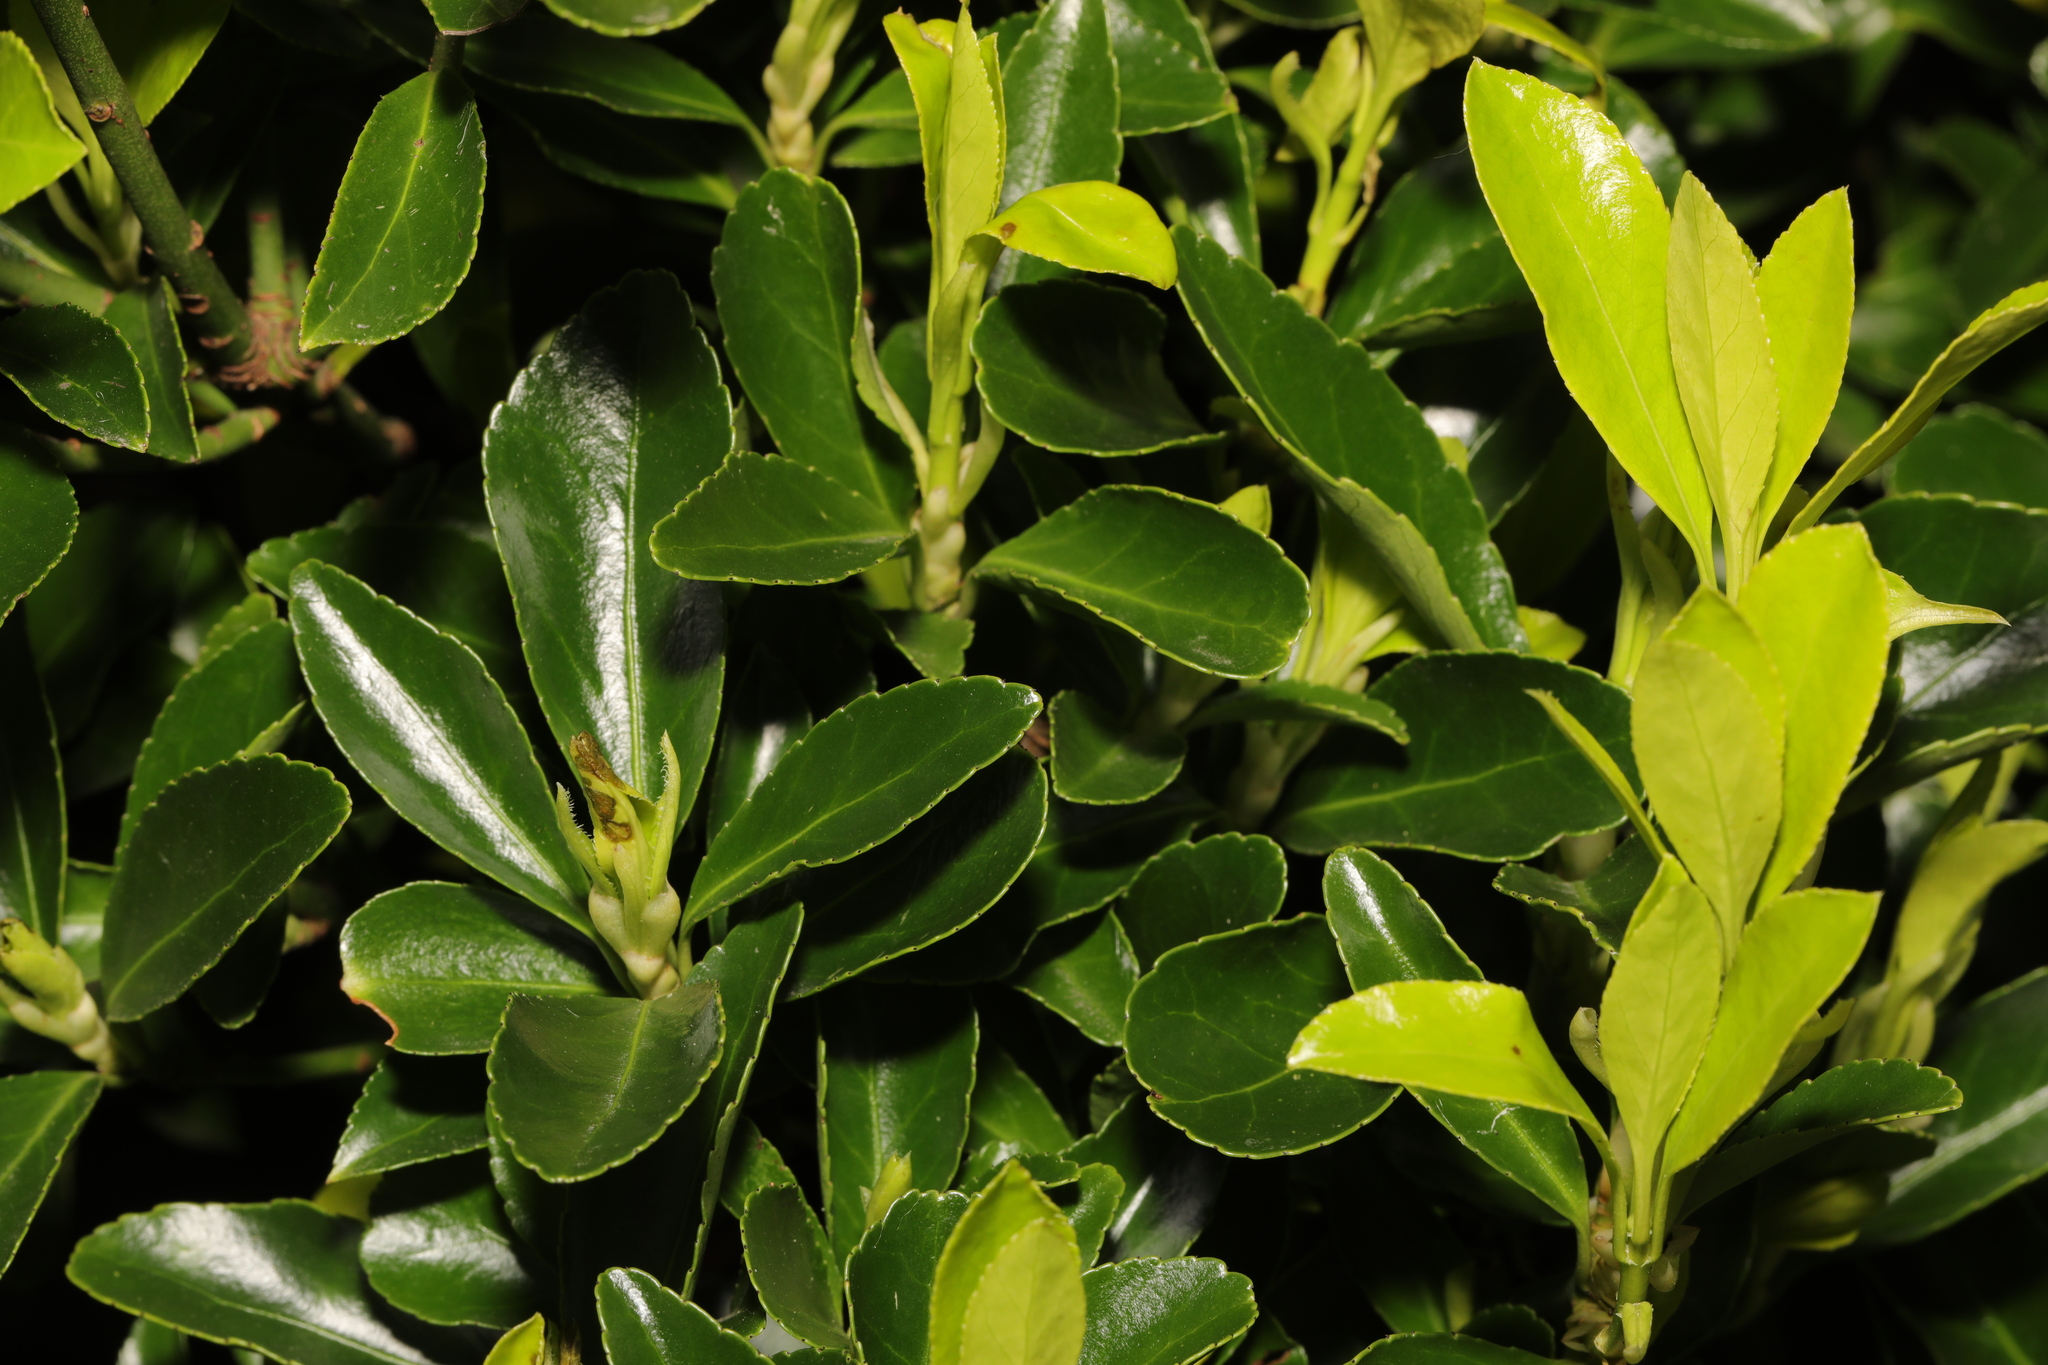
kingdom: Plantae
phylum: Tracheophyta
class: Magnoliopsida
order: Celastrales
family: Celastraceae
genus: Euonymus
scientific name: Euonymus japonicus
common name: Japanese spindletree
